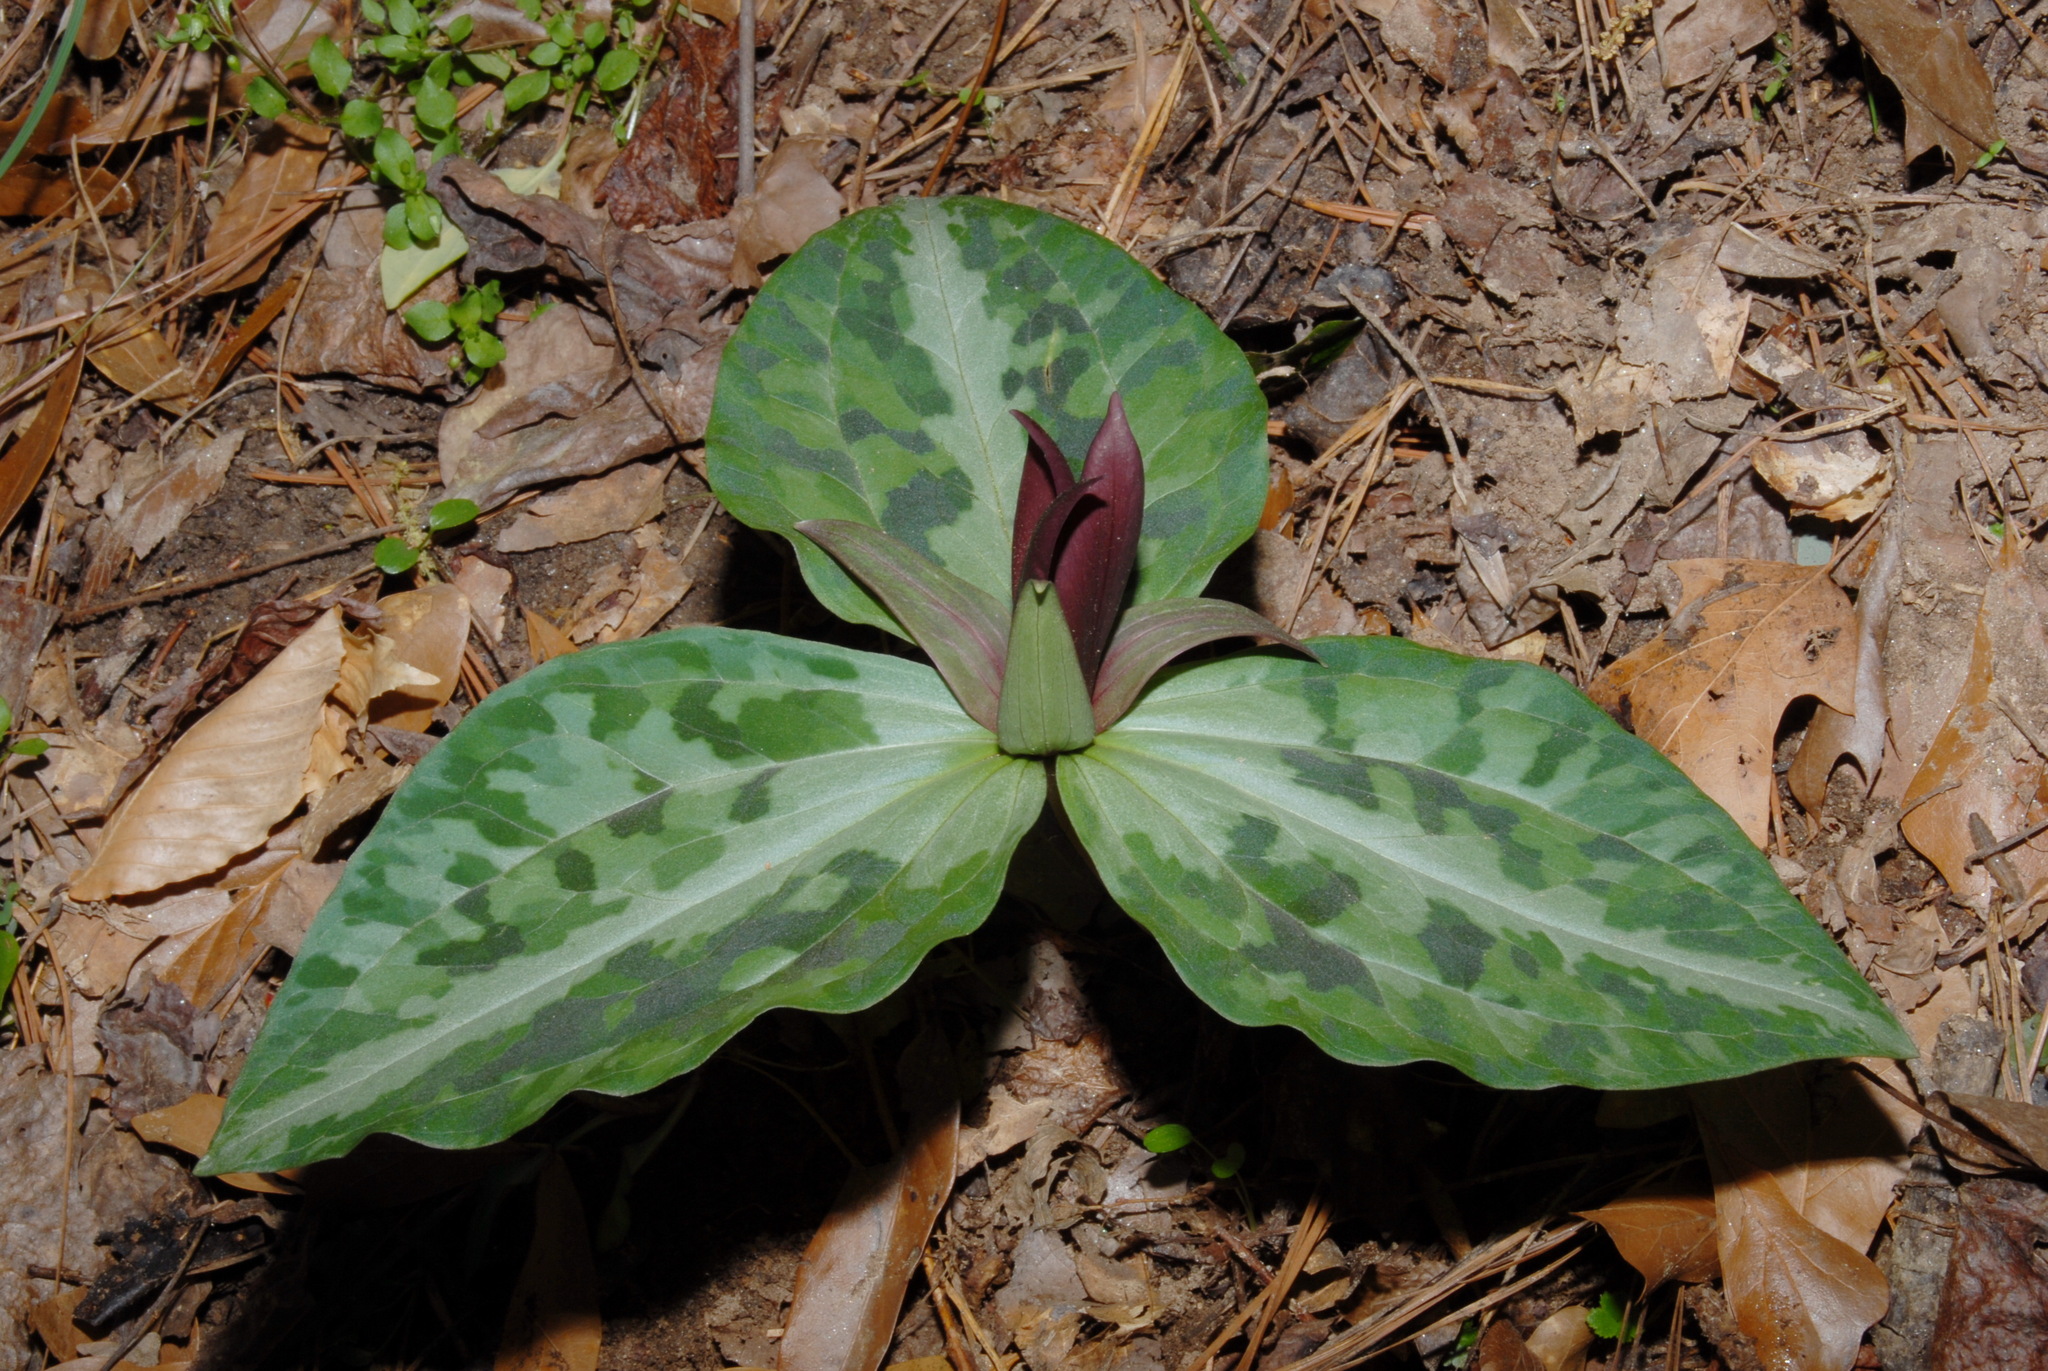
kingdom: Plantae
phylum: Tracheophyta
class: Liliopsida
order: Liliales
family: Melanthiaceae
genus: Trillium
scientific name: Trillium underwoodii
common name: Longbract wakerobin
